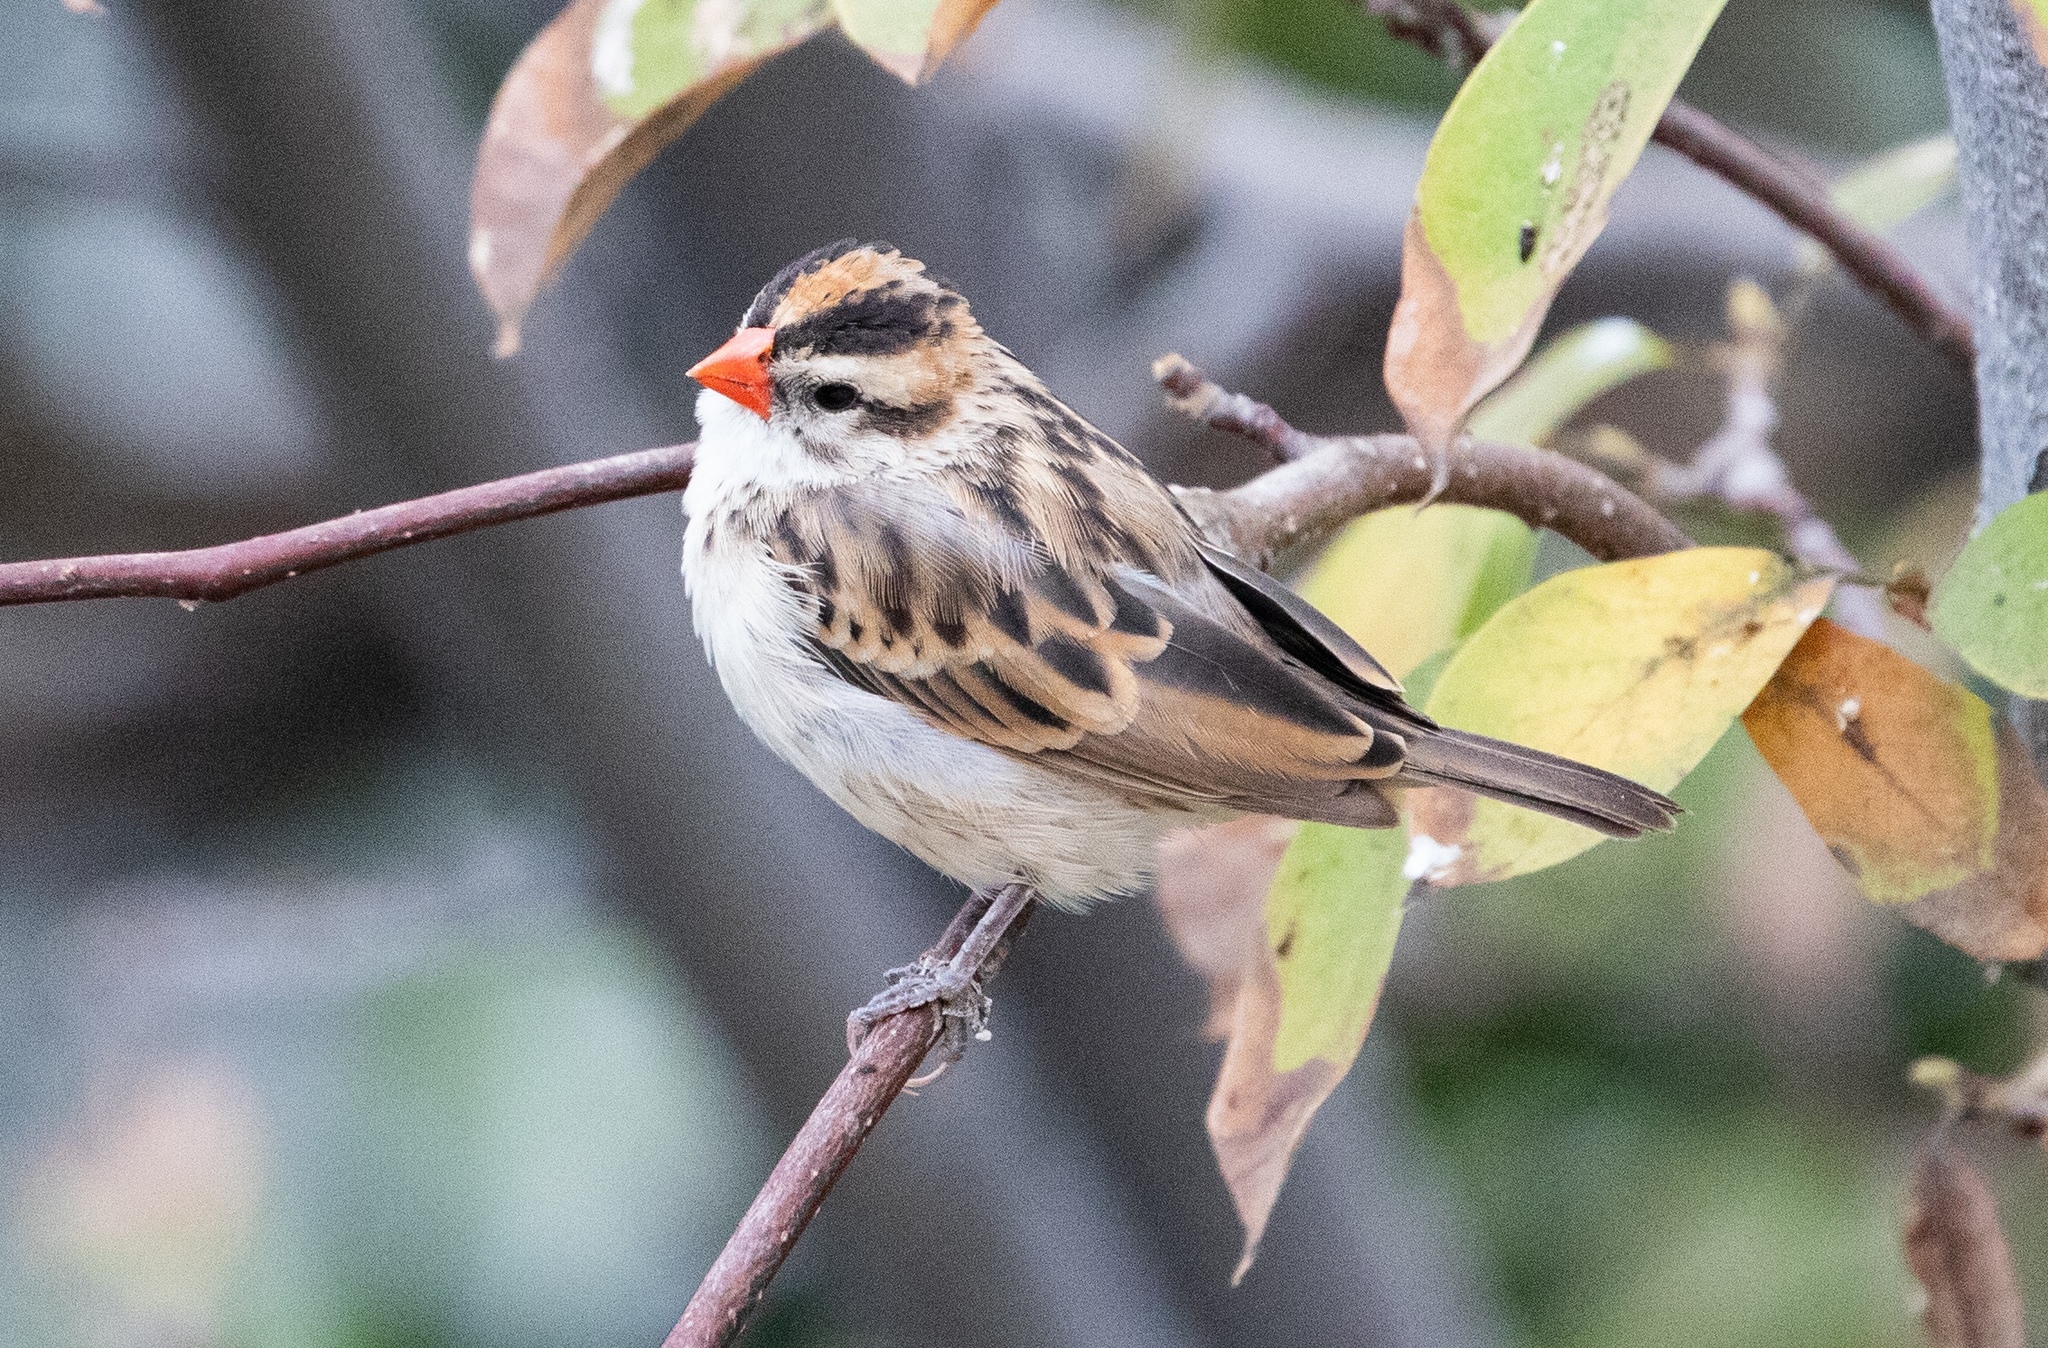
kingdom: Animalia
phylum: Chordata
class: Aves
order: Passeriformes
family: Viduidae
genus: Vidua
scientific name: Vidua macroura
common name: Pin-tailed whydah
